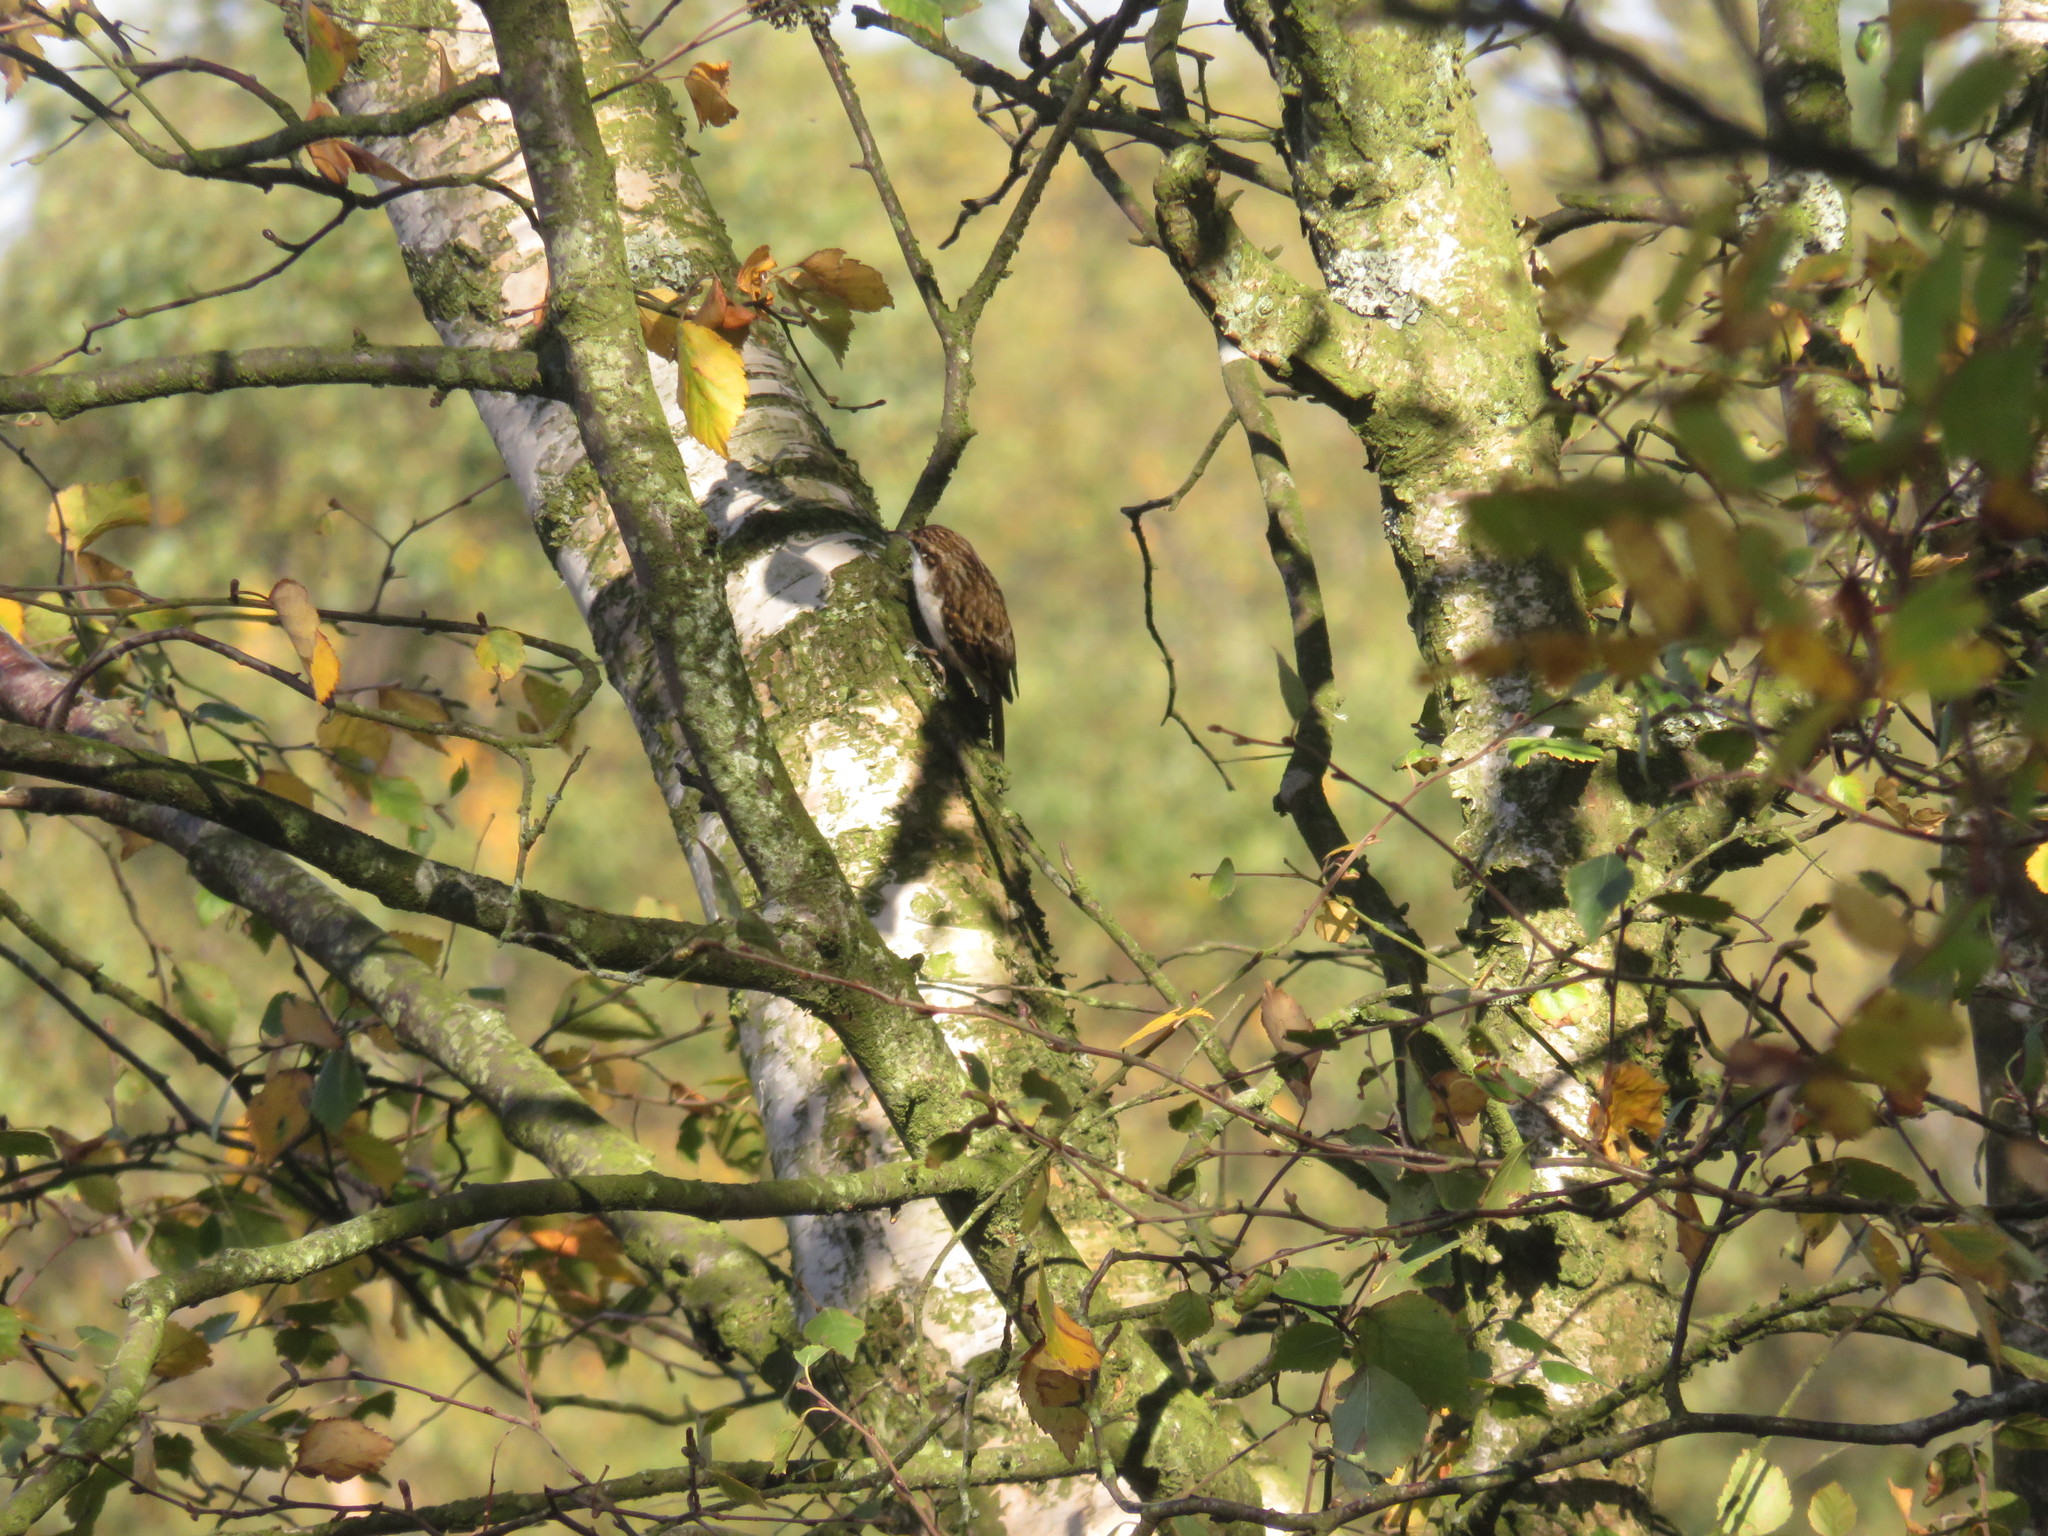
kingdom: Animalia
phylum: Chordata
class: Aves
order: Passeriformes
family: Certhiidae
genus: Certhia
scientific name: Certhia familiaris
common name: Eurasian treecreeper
